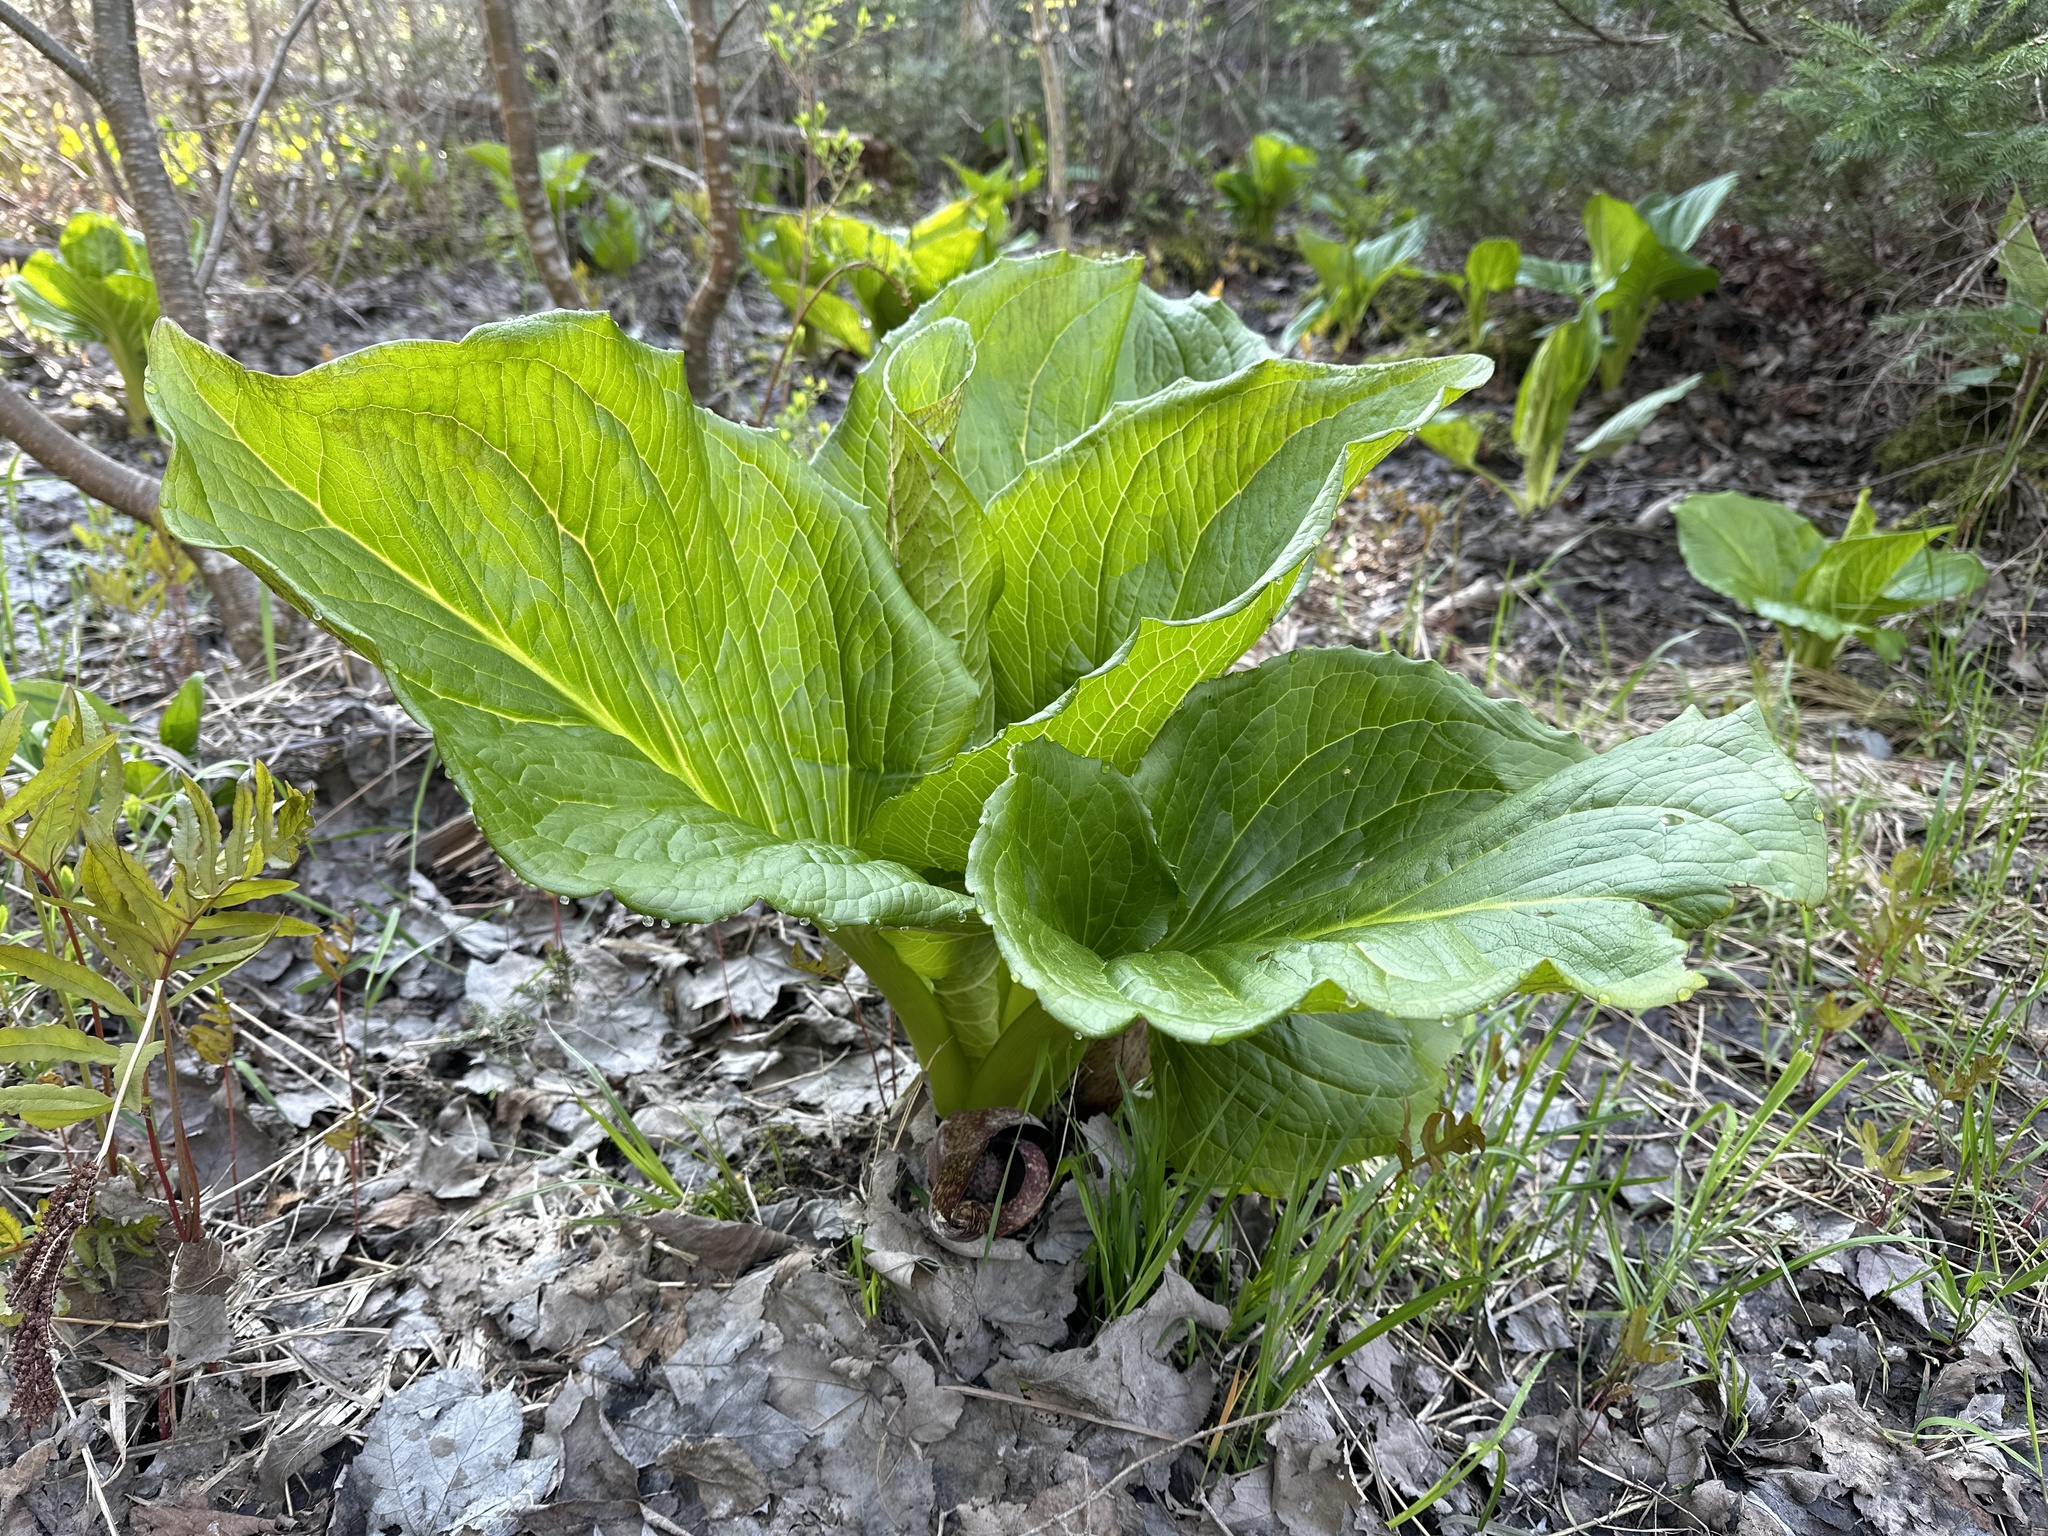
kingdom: Plantae
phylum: Tracheophyta
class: Liliopsida
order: Alismatales
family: Araceae
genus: Symplocarpus
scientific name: Symplocarpus foetidus
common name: Eastern skunk cabbage
